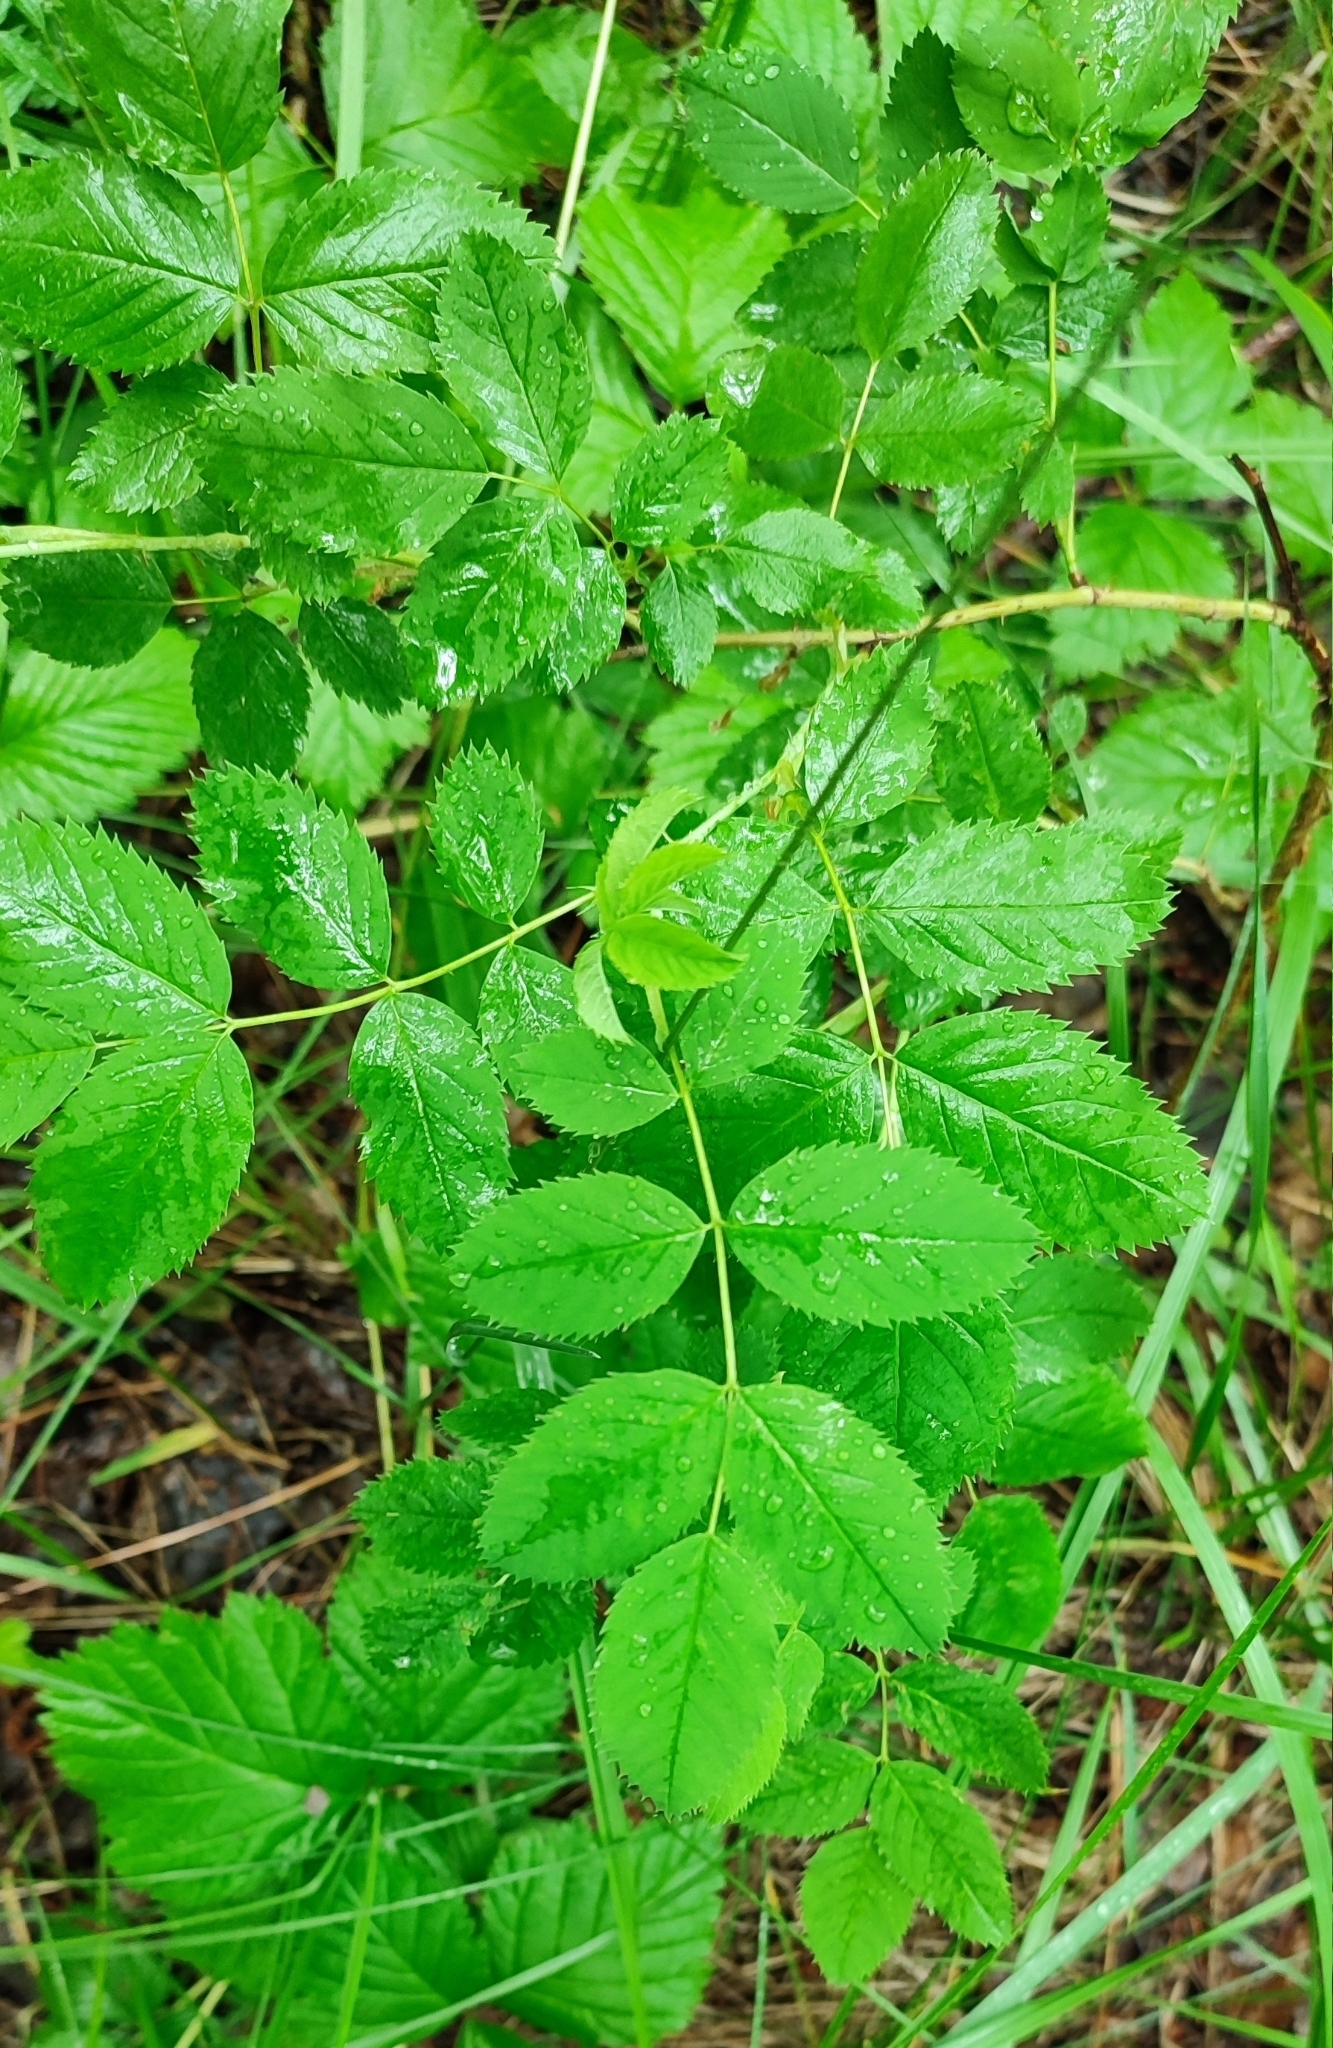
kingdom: Plantae
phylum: Tracheophyta
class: Magnoliopsida
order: Rosales
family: Rosaceae
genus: Rosa
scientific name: Rosa glabrifolia
